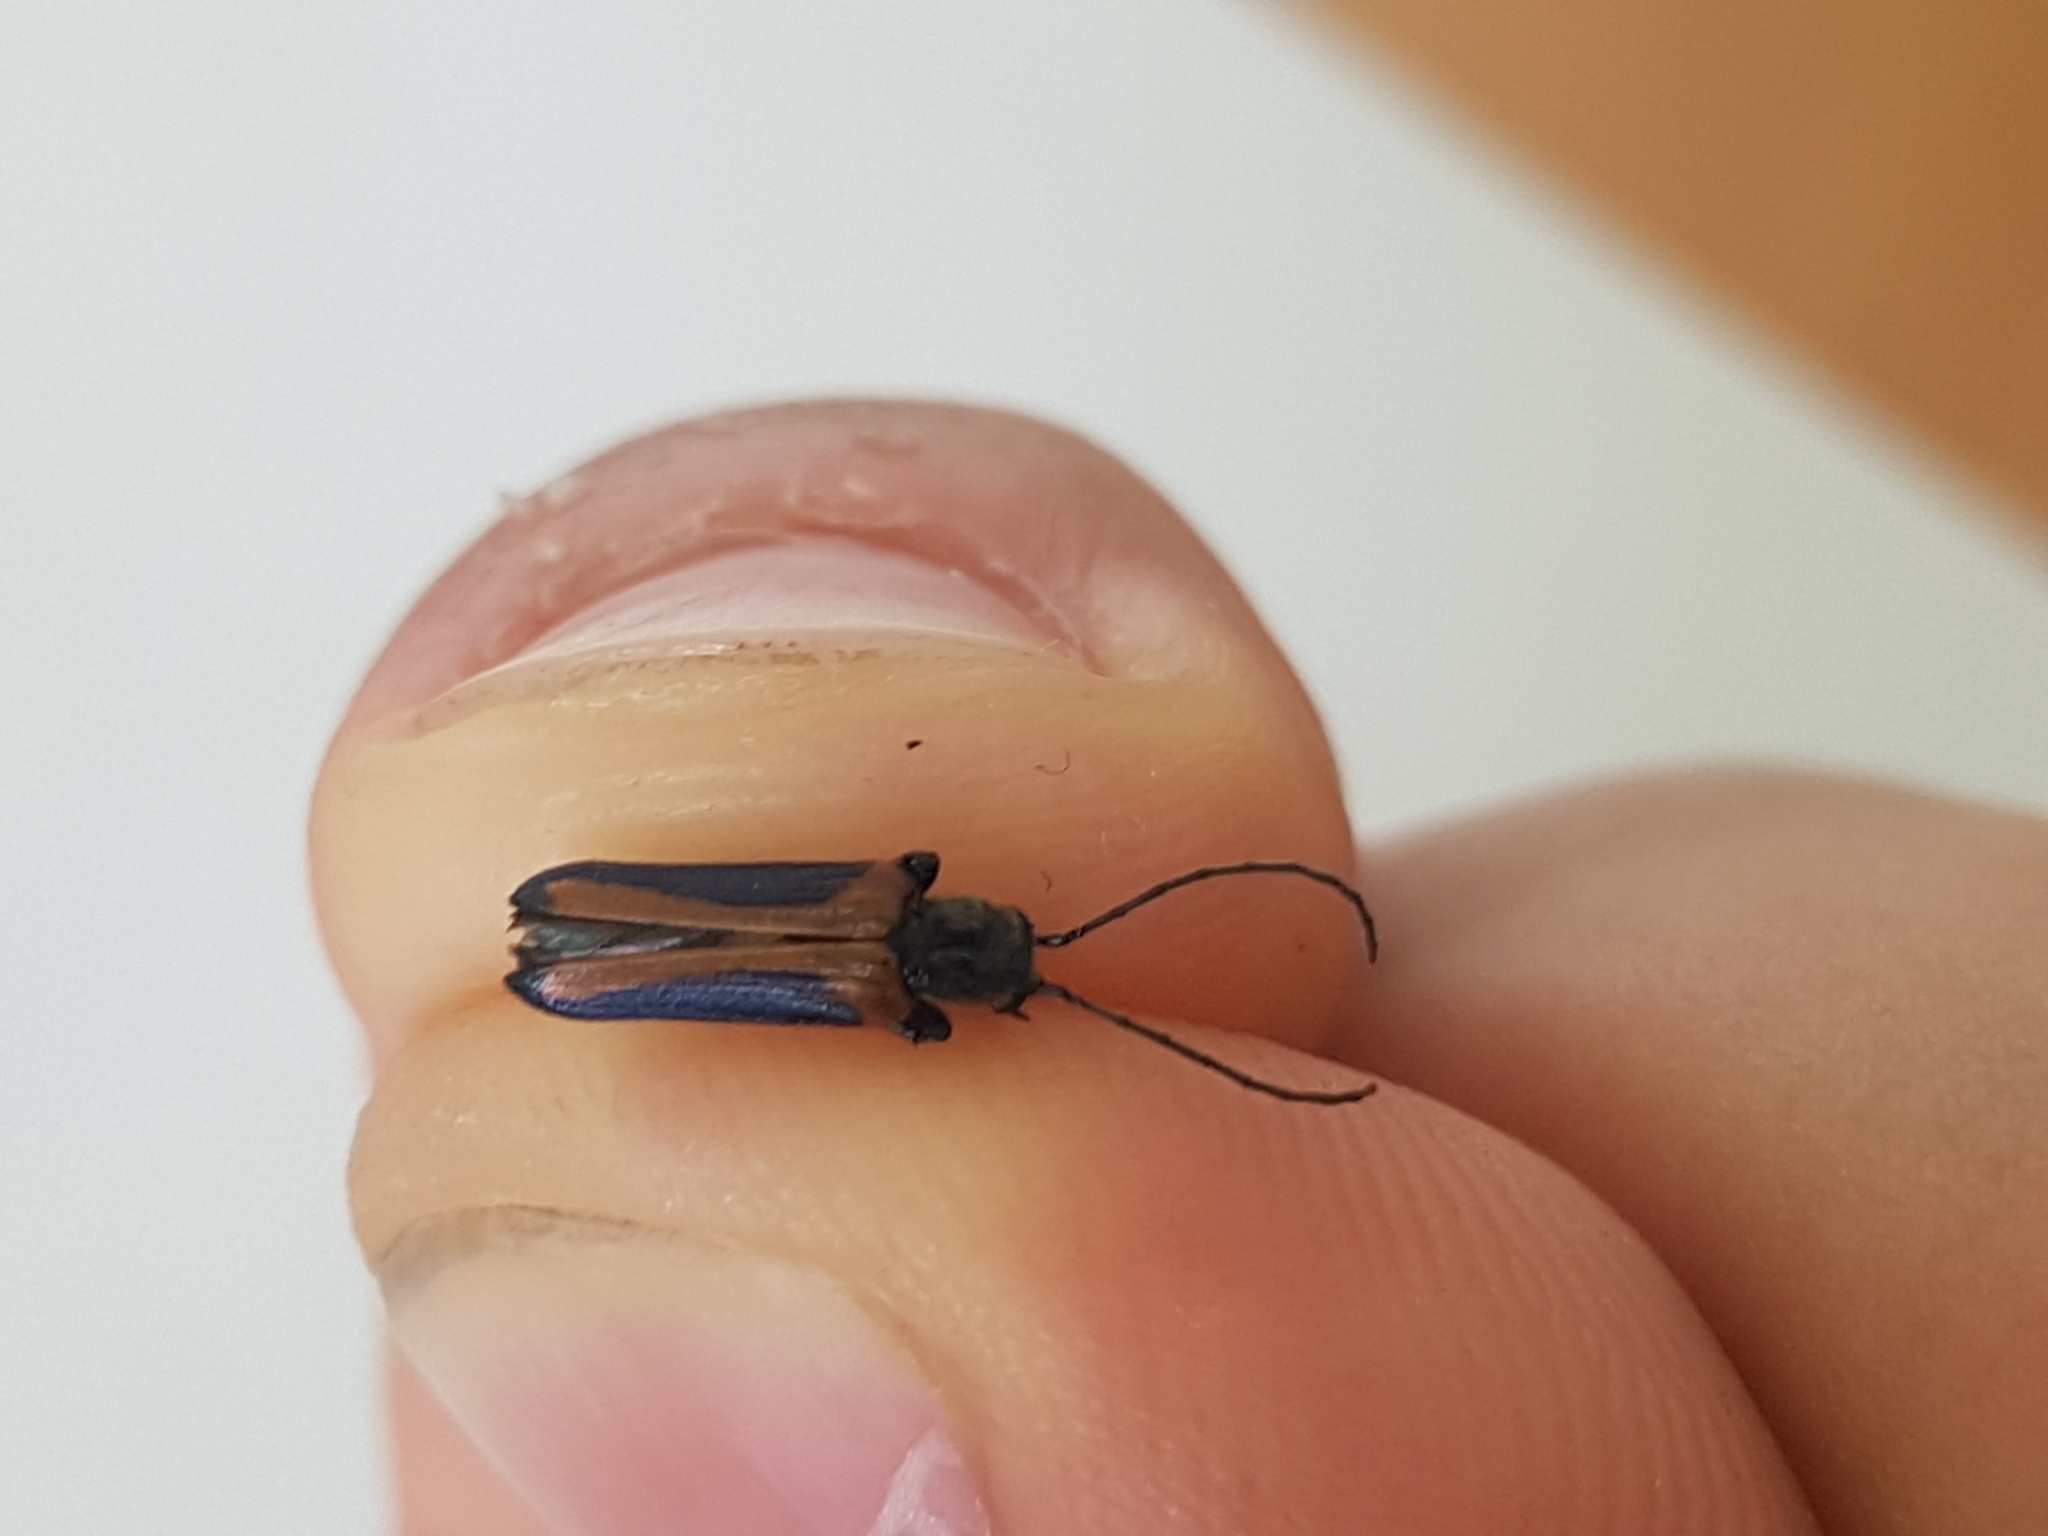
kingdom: Animalia
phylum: Arthropoda
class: Insecta
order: Coleoptera
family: Oedemeridae
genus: Anogcodes
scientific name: Anogcodes melanurus
